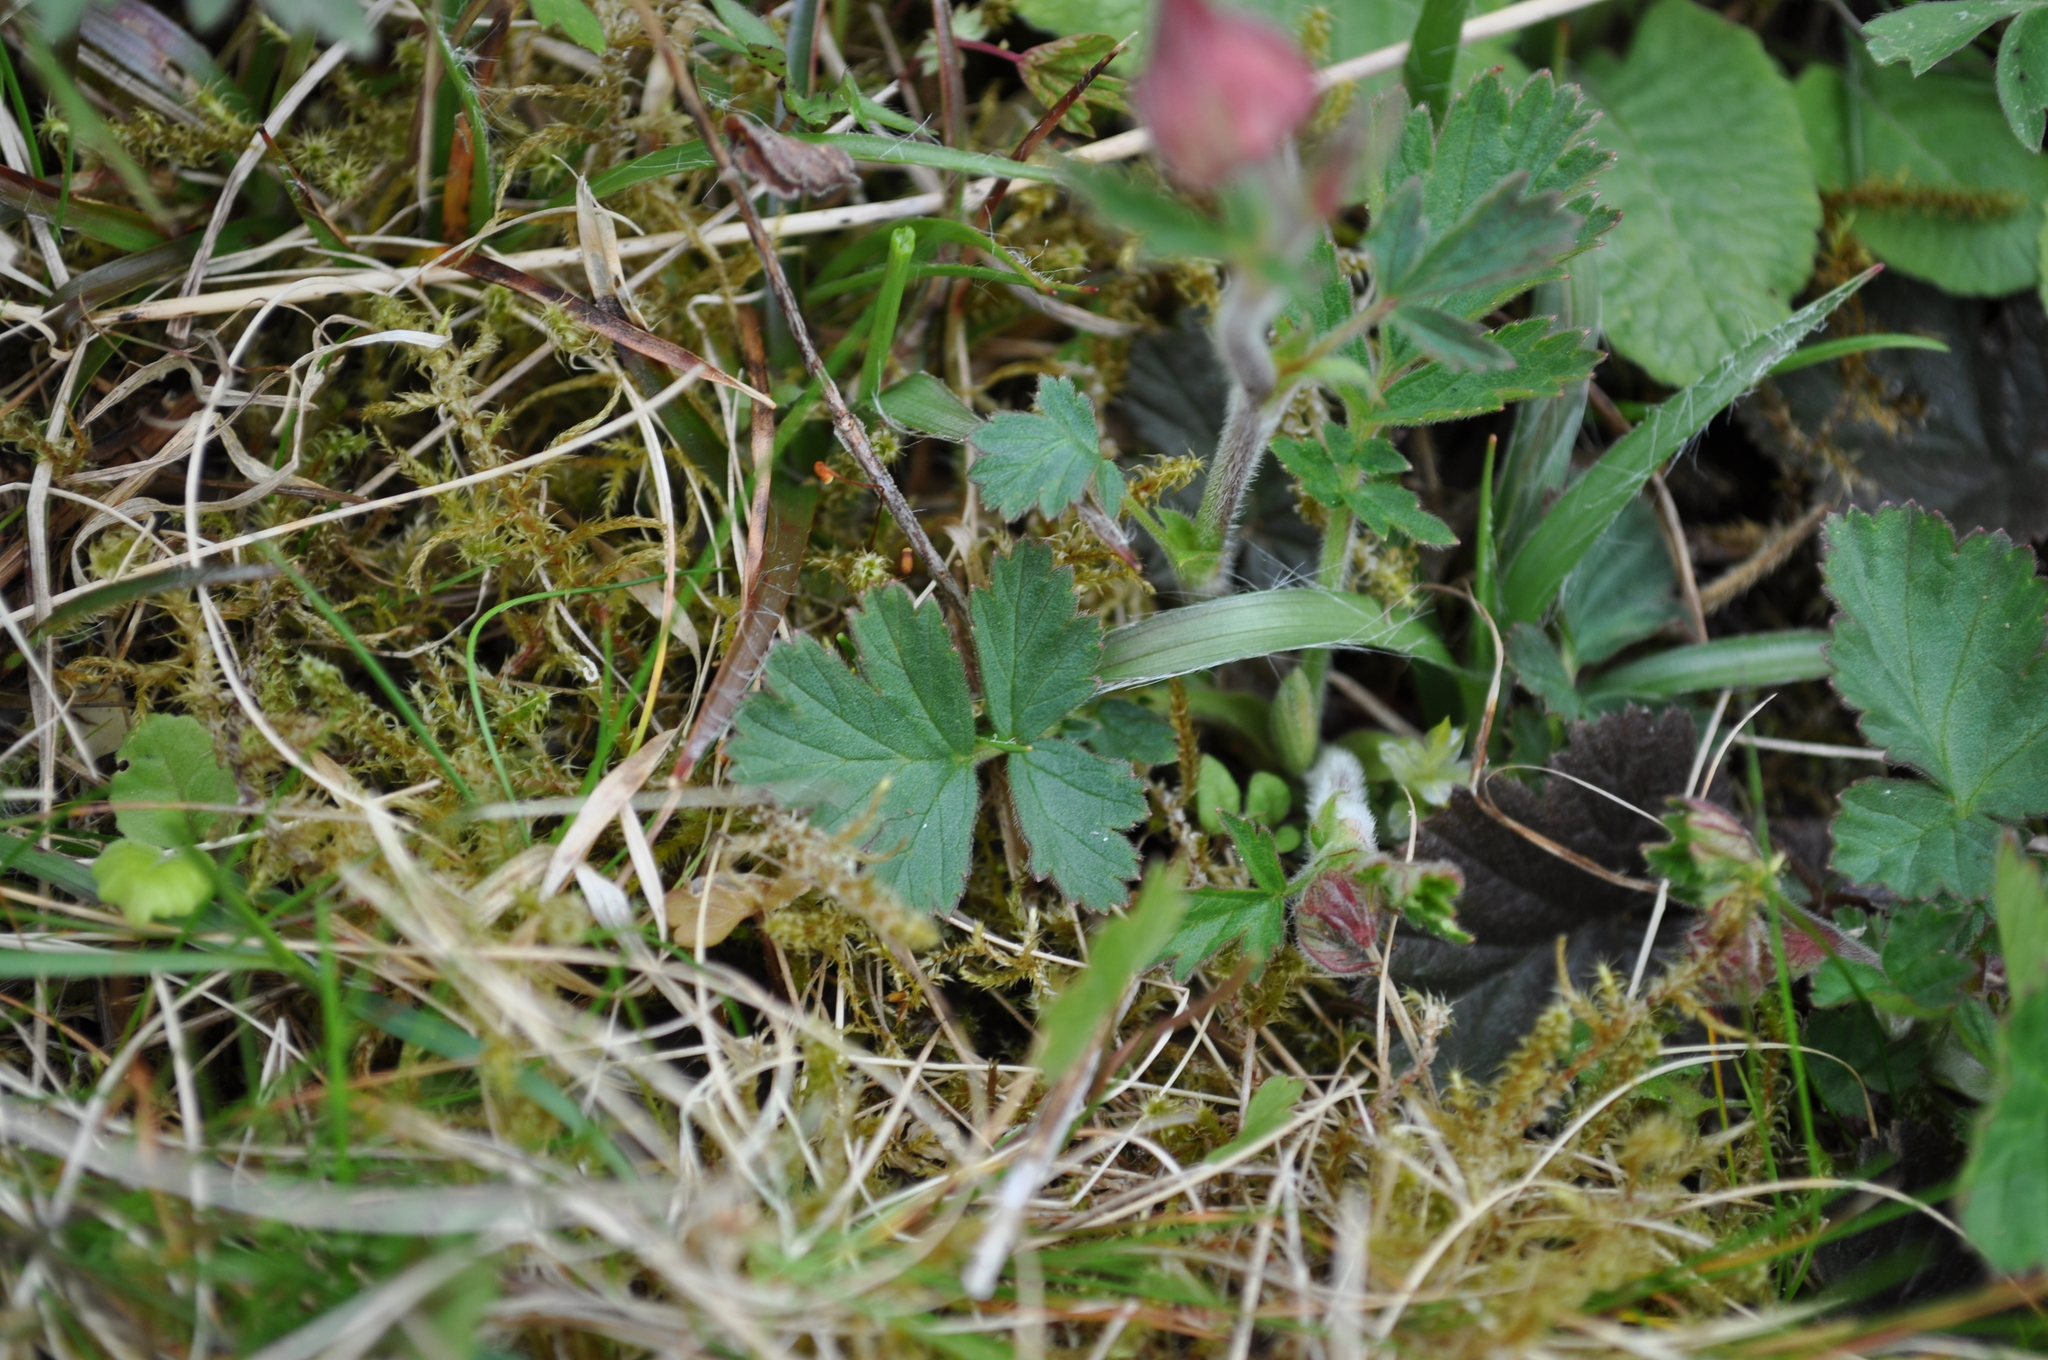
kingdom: Plantae
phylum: Tracheophyta
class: Magnoliopsida
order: Rosales
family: Rosaceae
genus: Geum
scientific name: Geum rivale
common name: Water avens
